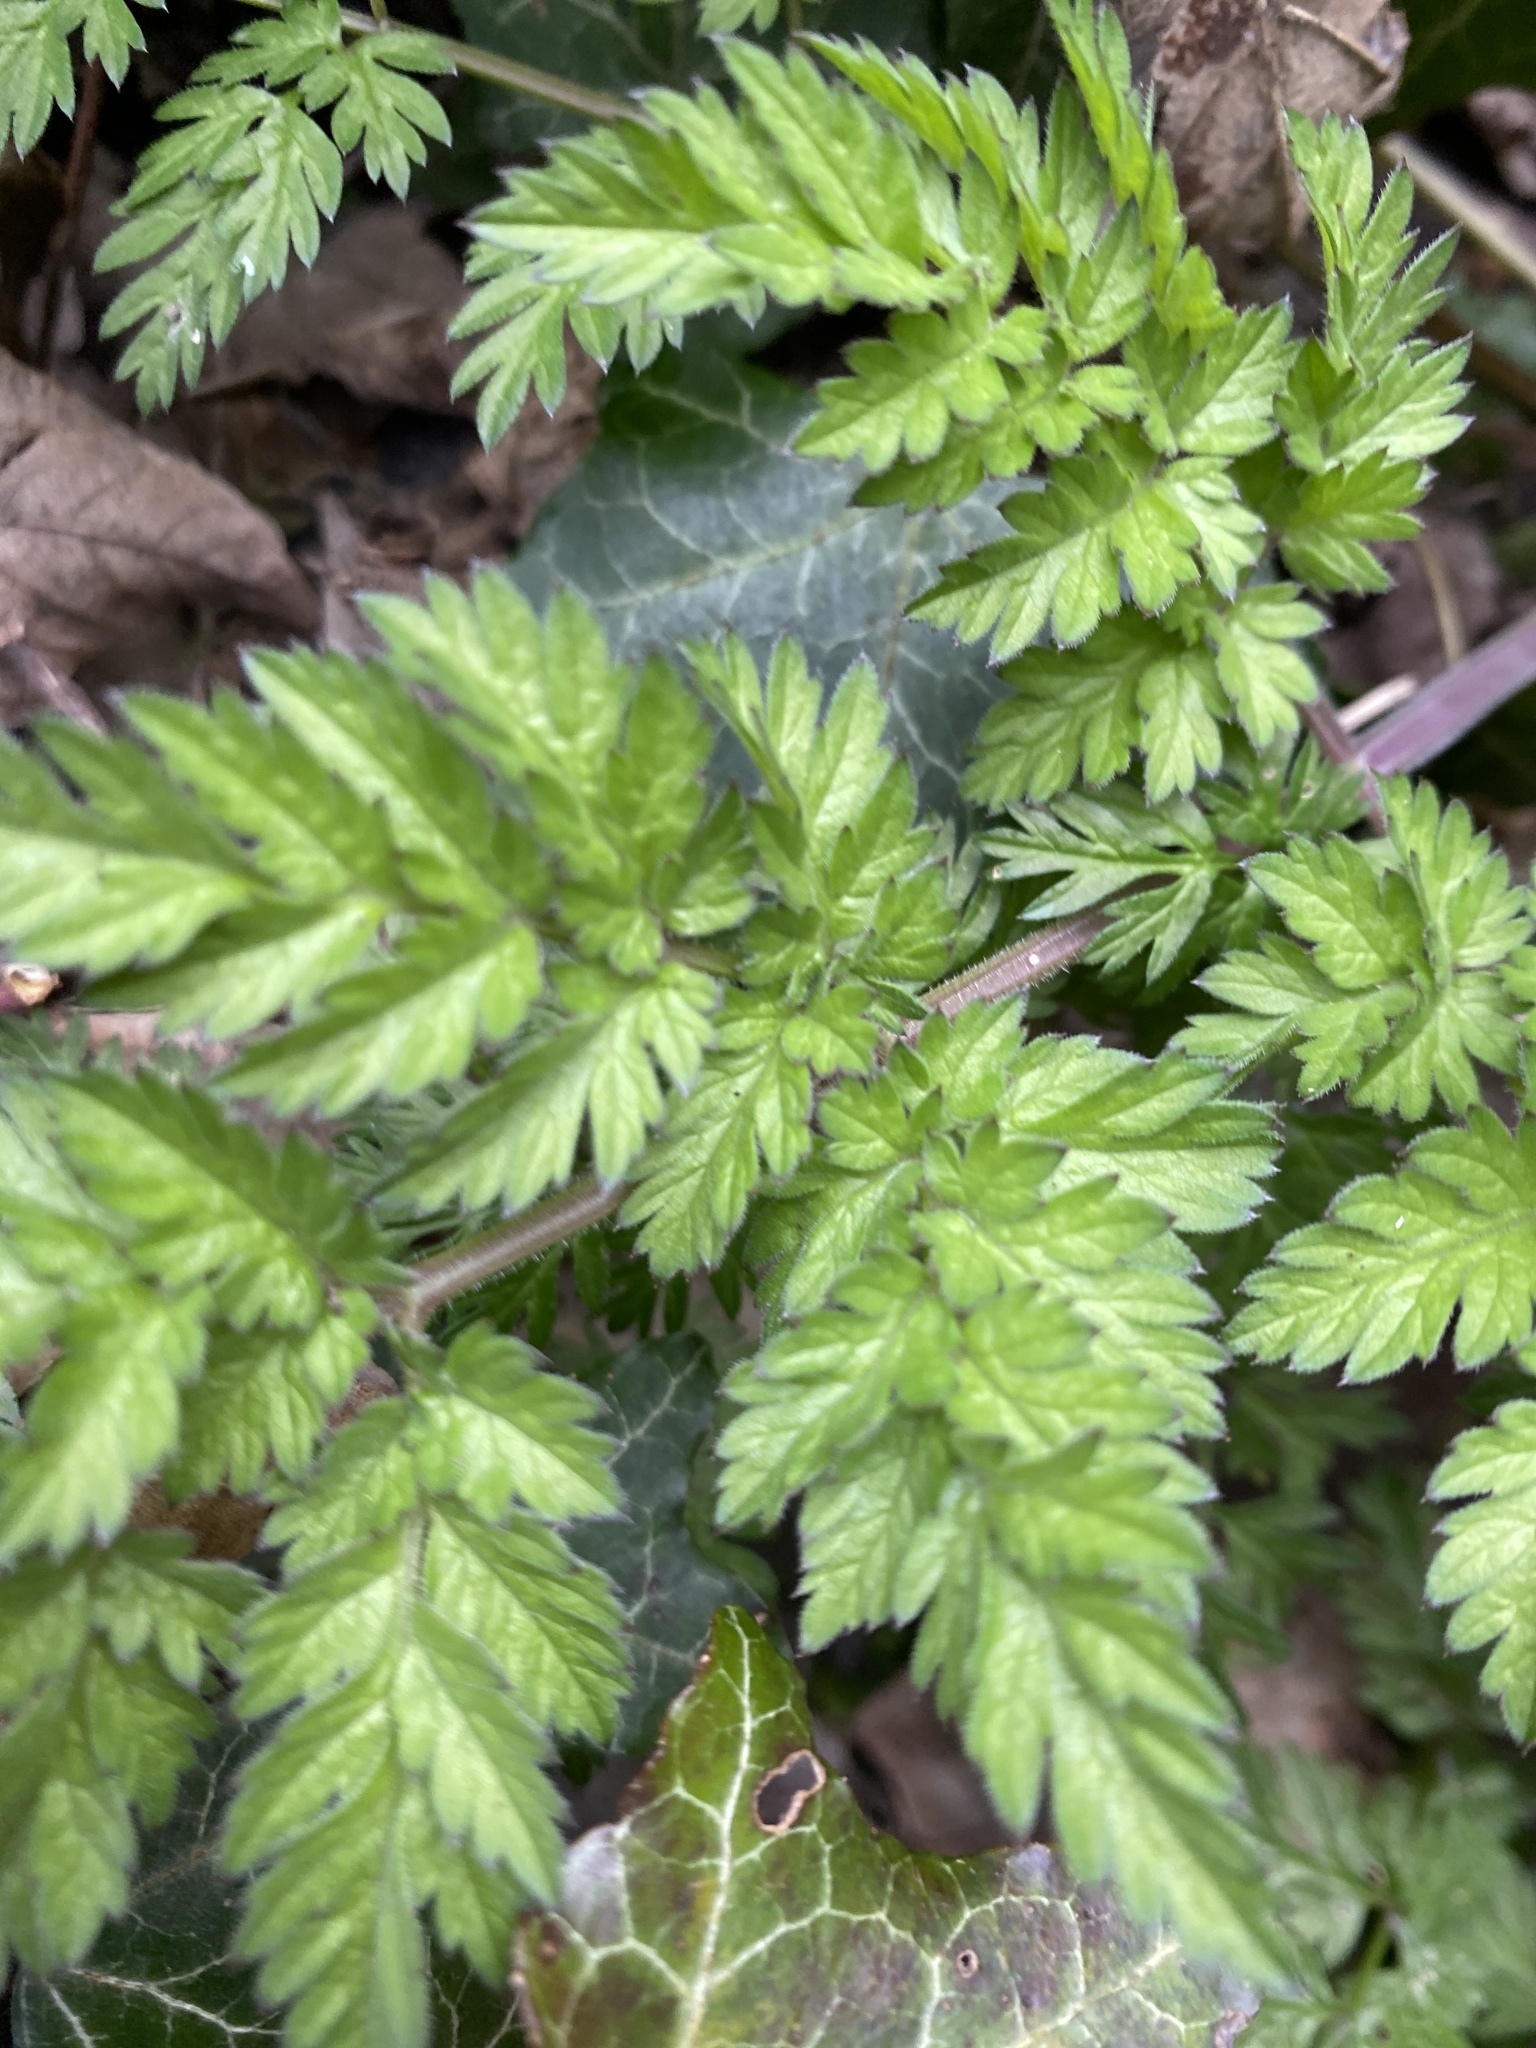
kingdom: Plantae
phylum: Tracheophyta
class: Magnoliopsida
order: Apiales
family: Apiaceae
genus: Anthriscus
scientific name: Anthriscus sylvestris
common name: Cow parsley
